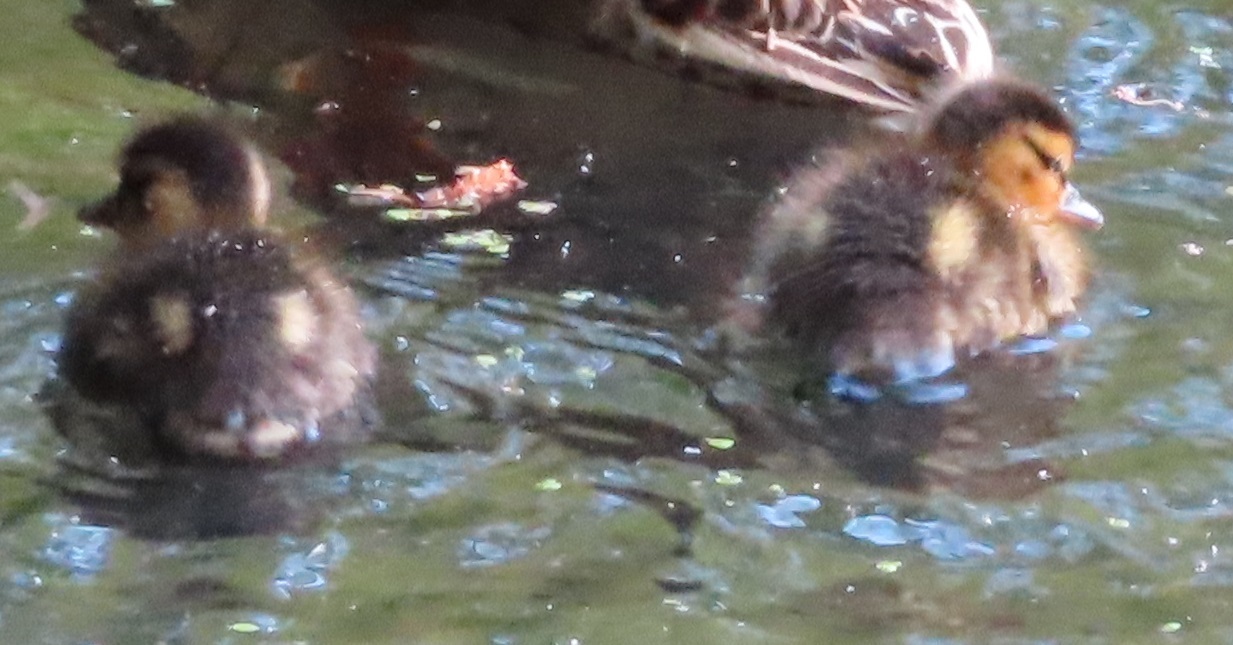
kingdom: Animalia
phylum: Chordata
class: Aves
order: Anseriformes
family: Anatidae
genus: Anas
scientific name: Anas platyrhynchos
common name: Mallard
